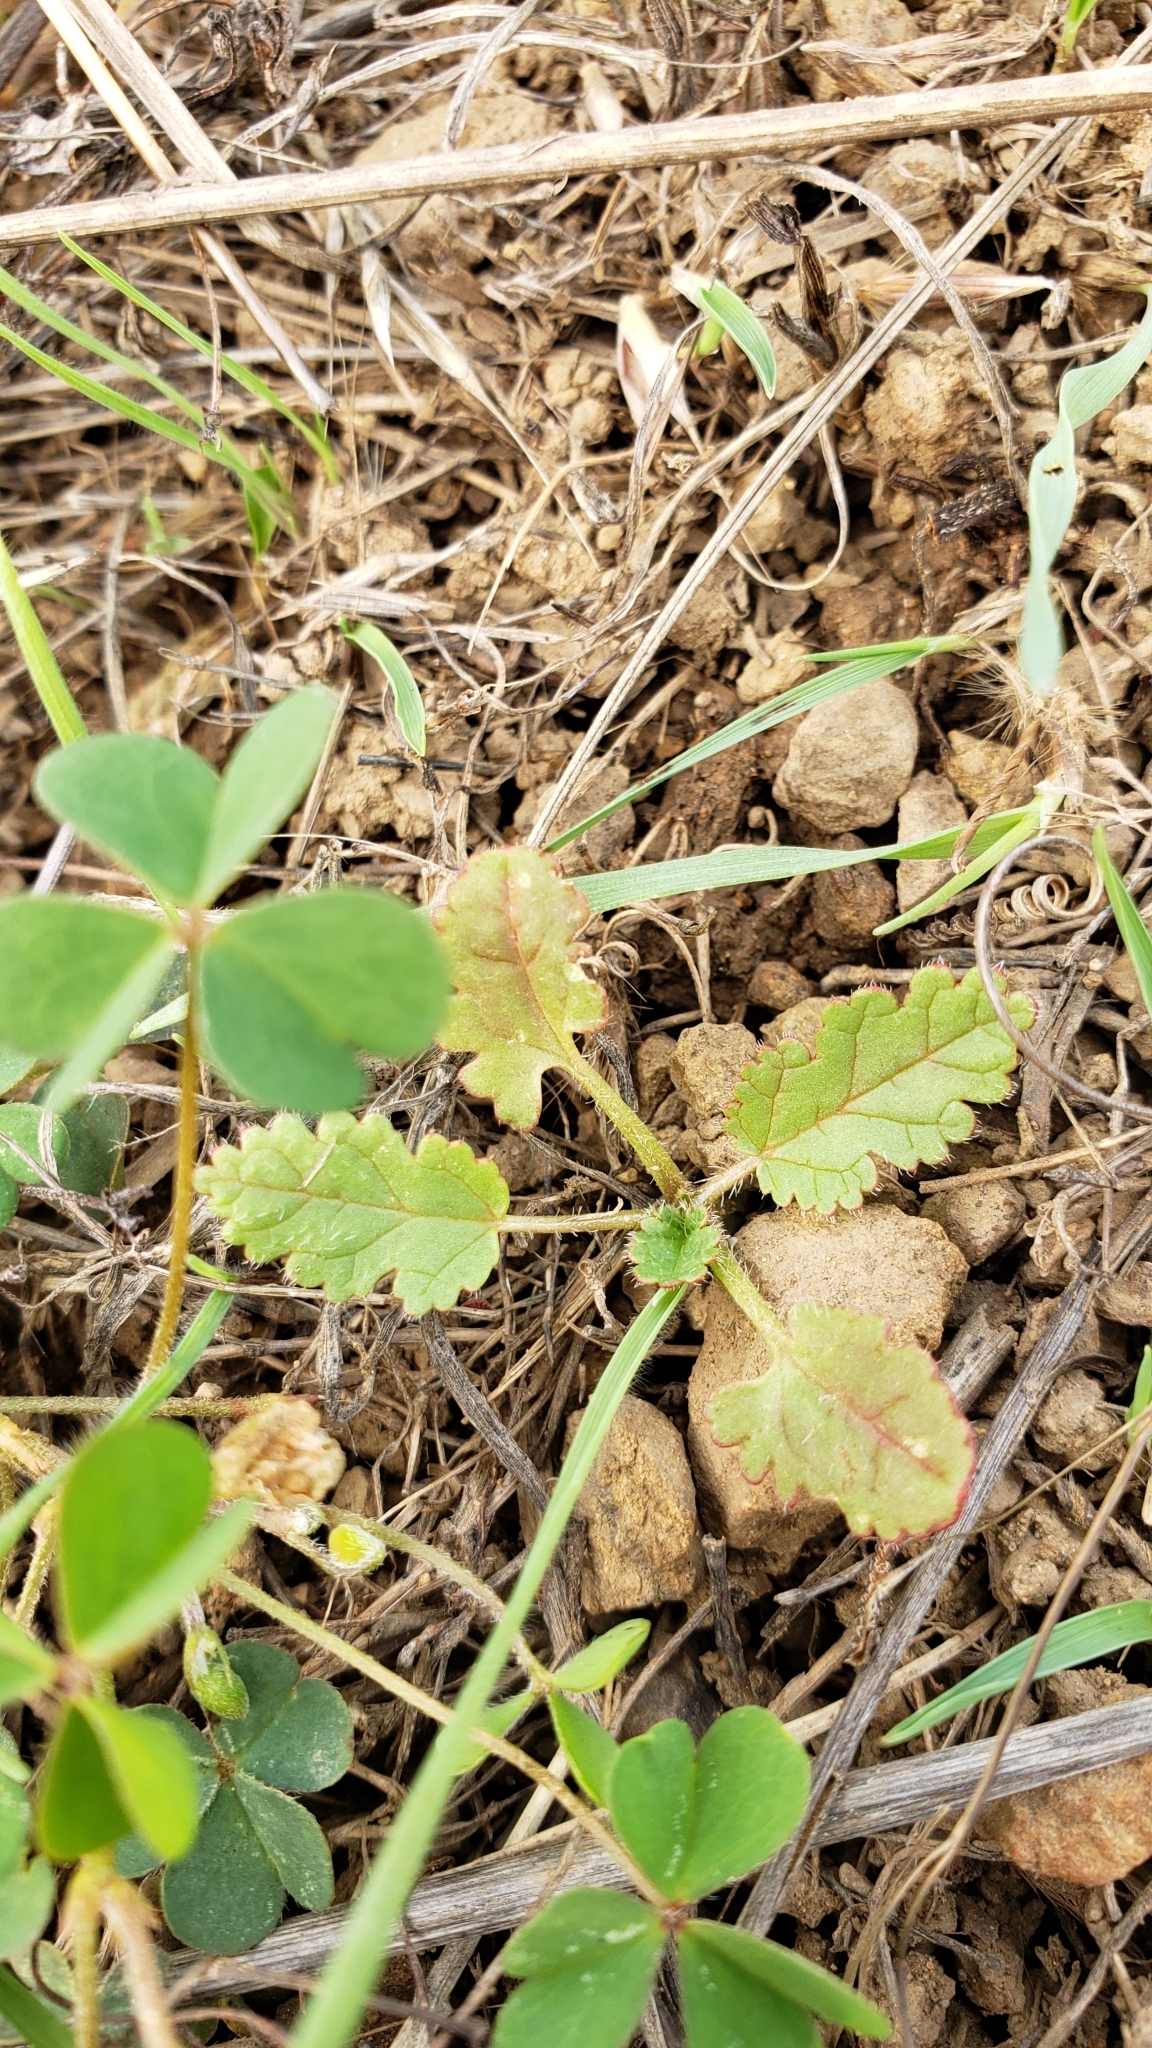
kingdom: Plantae
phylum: Tracheophyta
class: Magnoliopsida
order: Geraniales
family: Geraniaceae
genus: Erodium
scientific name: Erodium
